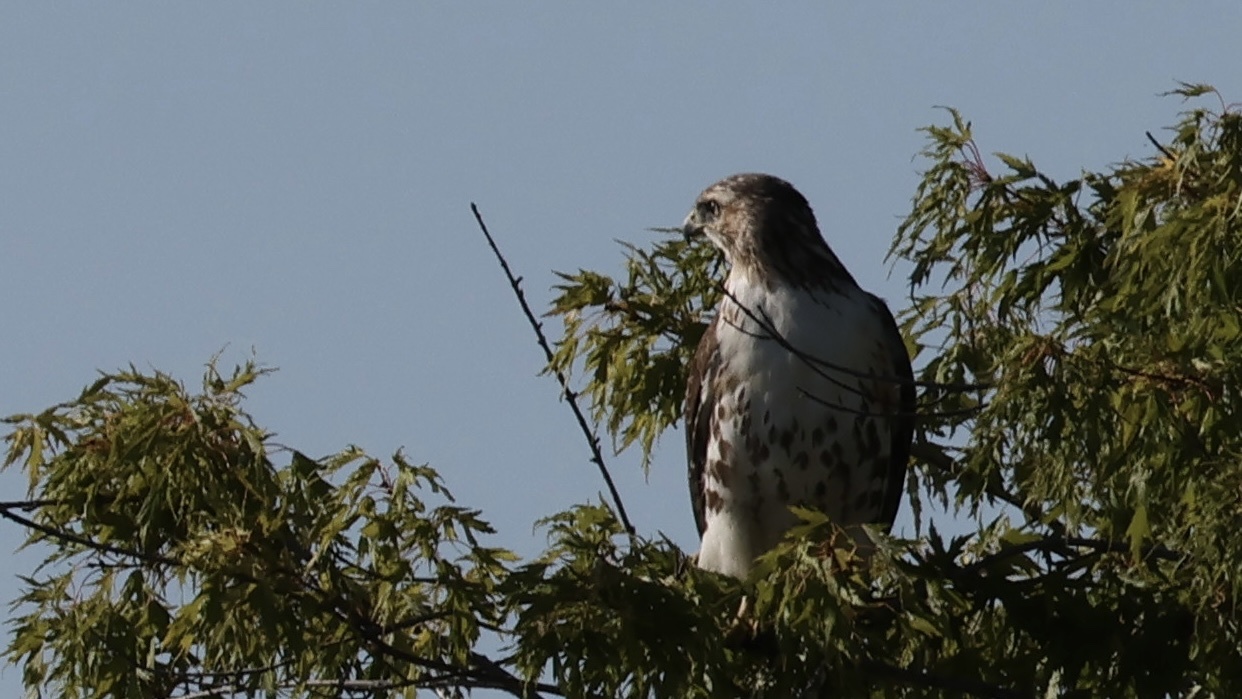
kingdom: Animalia
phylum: Chordata
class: Aves
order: Accipitriformes
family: Accipitridae
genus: Buteo
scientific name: Buteo jamaicensis
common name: Red-tailed hawk
